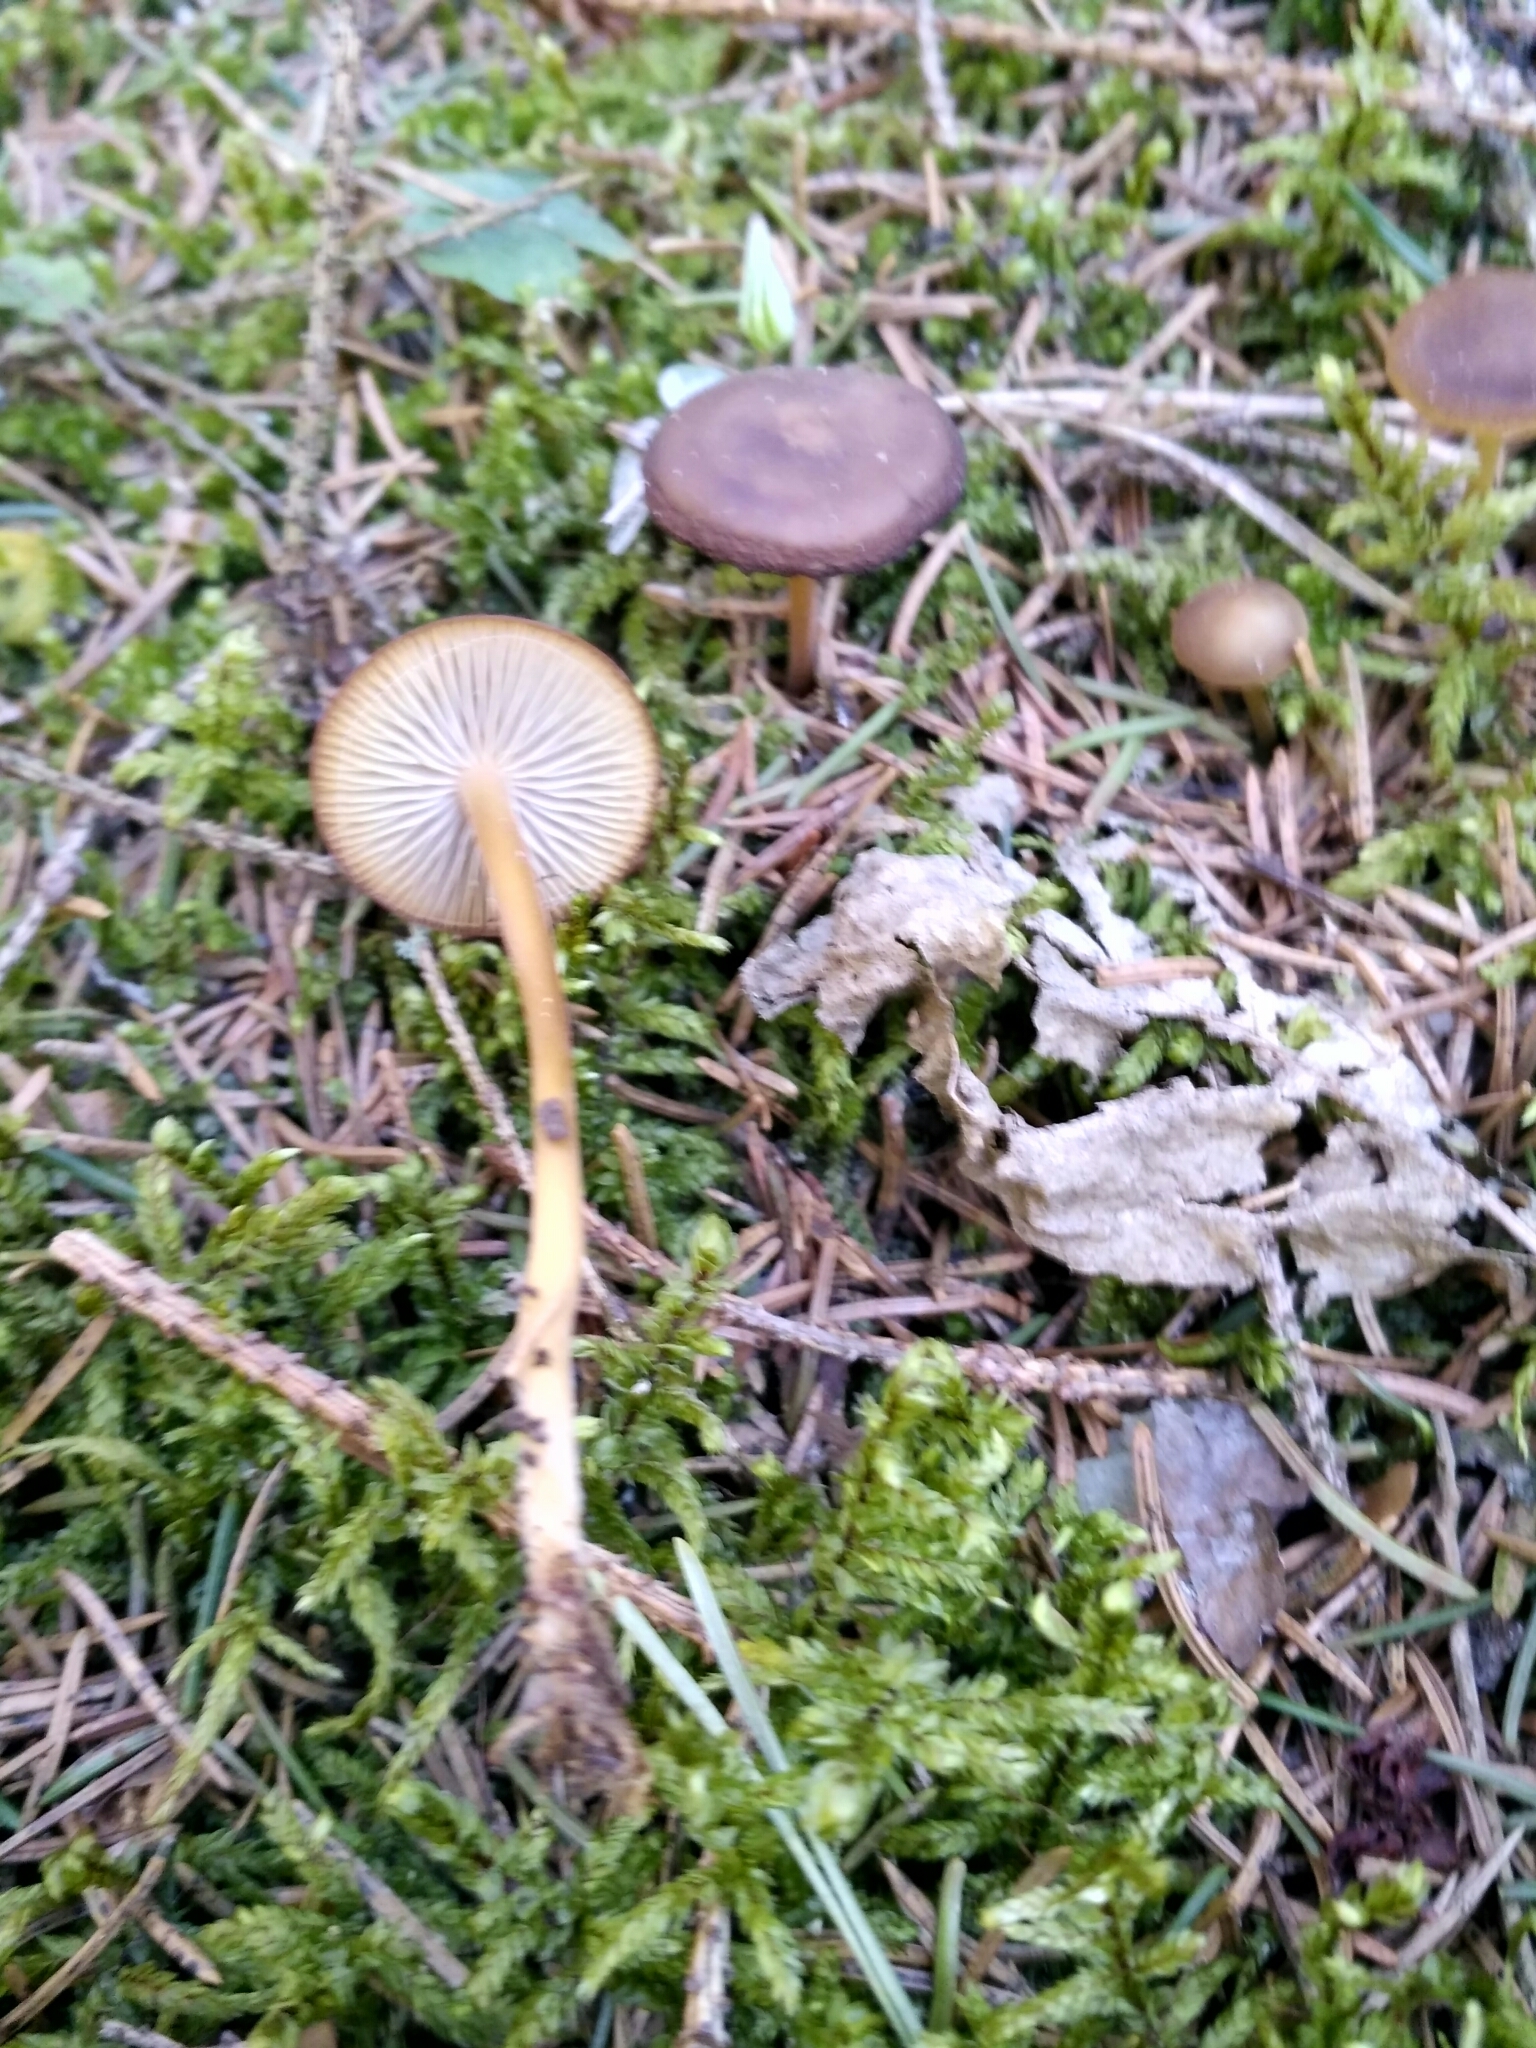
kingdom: Fungi
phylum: Basidiomycota
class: Agaricomycetes
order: Agaricales
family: Physalacriaceae
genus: Strobilurus
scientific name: Strobilurus esculentus
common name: Sprucecone cap
